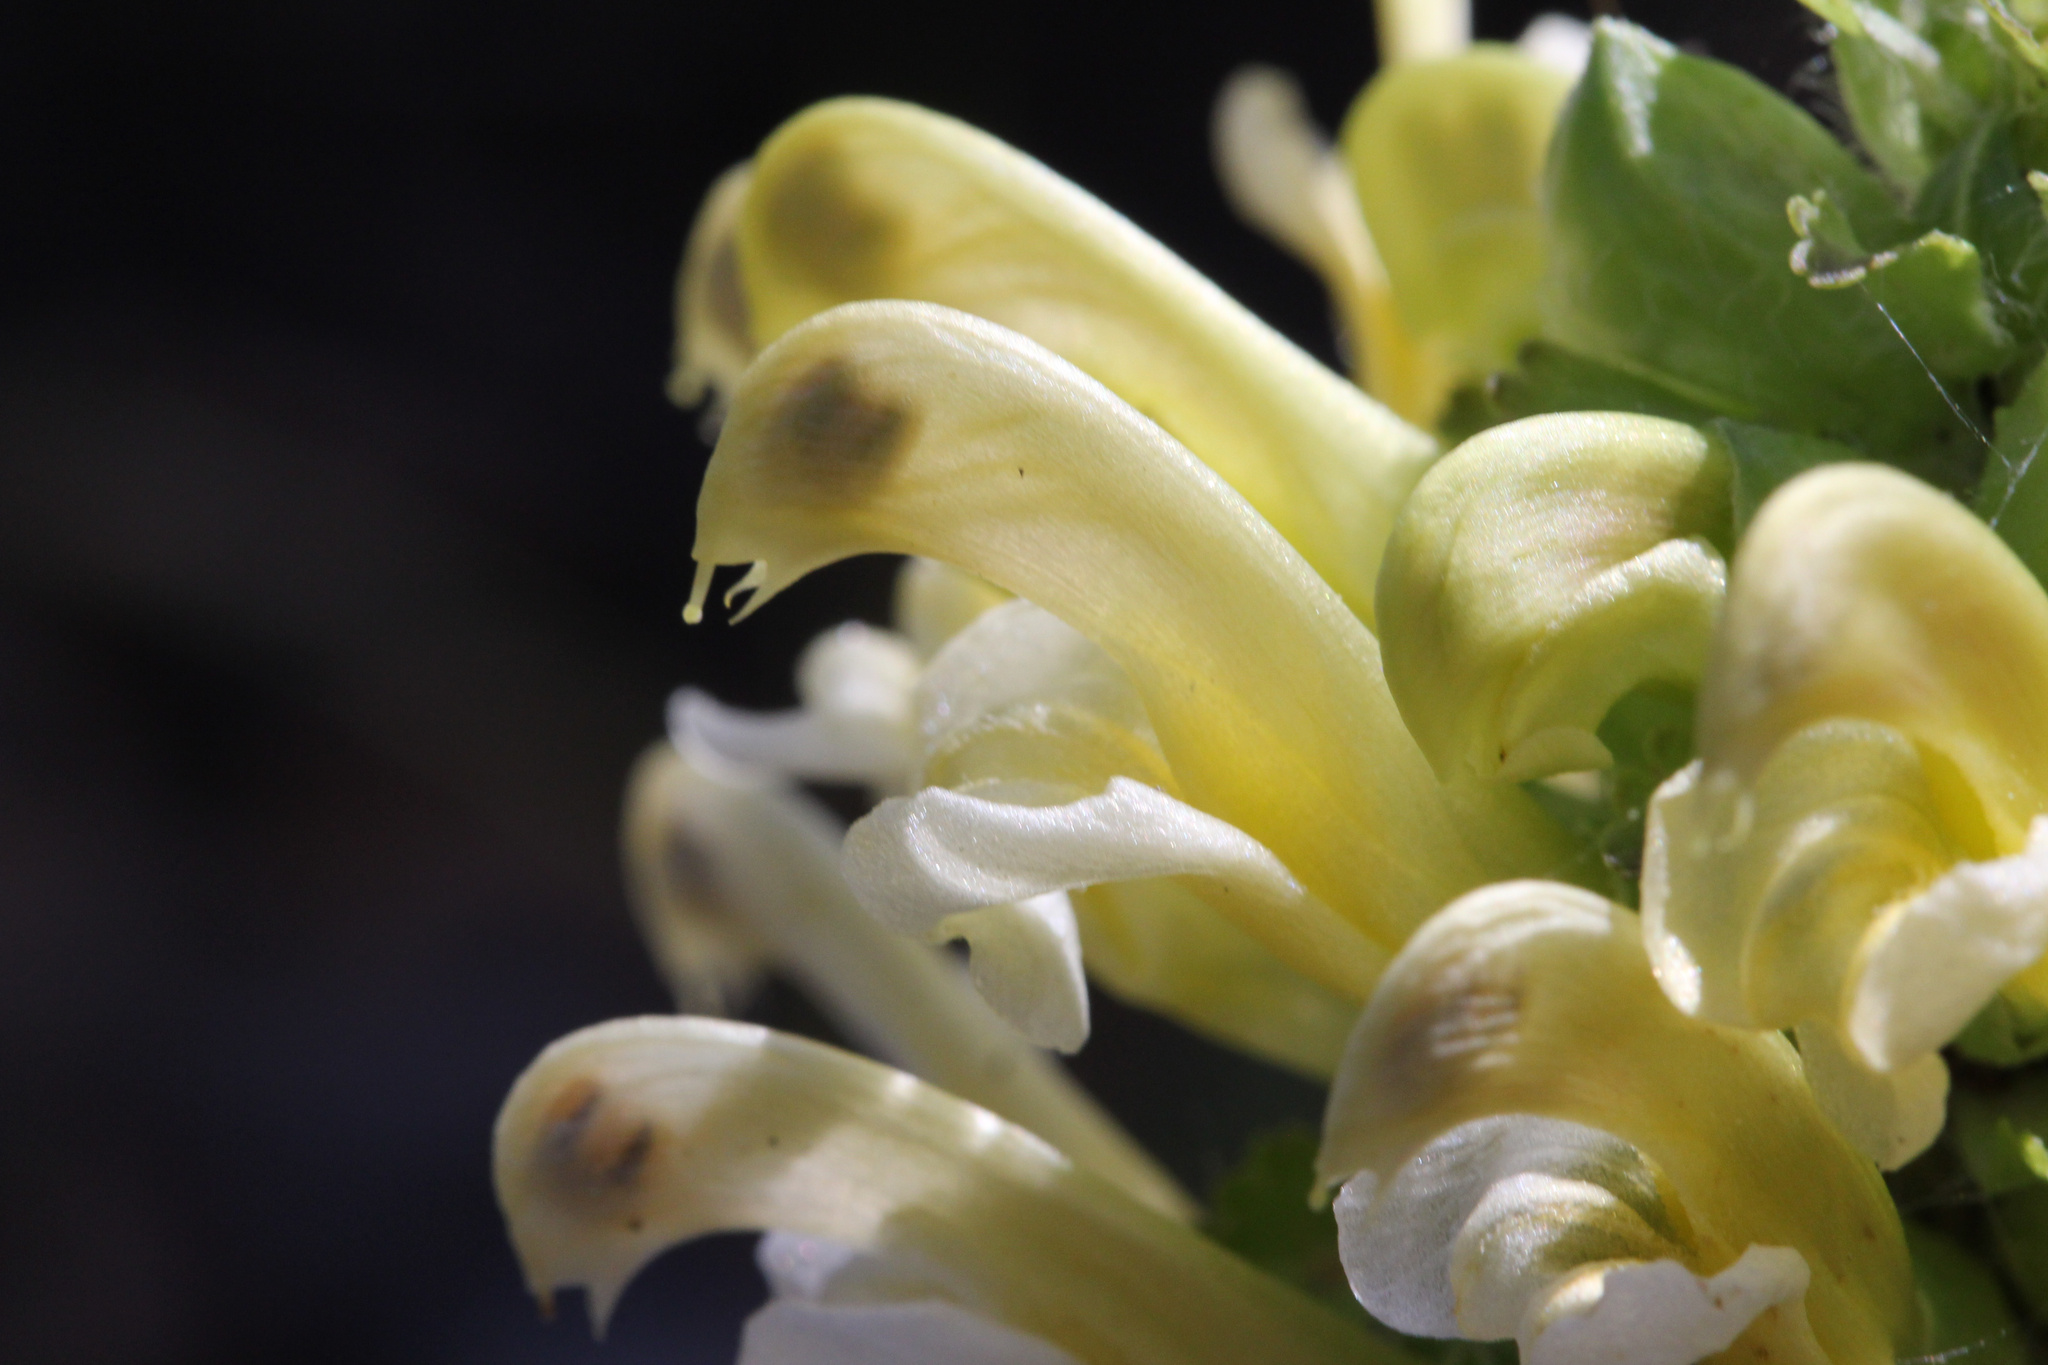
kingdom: Plantae
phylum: Tracheophyta
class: Magnoliopsida
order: Lamiales
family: Orobanchaceae
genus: Pedicularis
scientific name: Pedicularis canadensis
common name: Early lousewort
